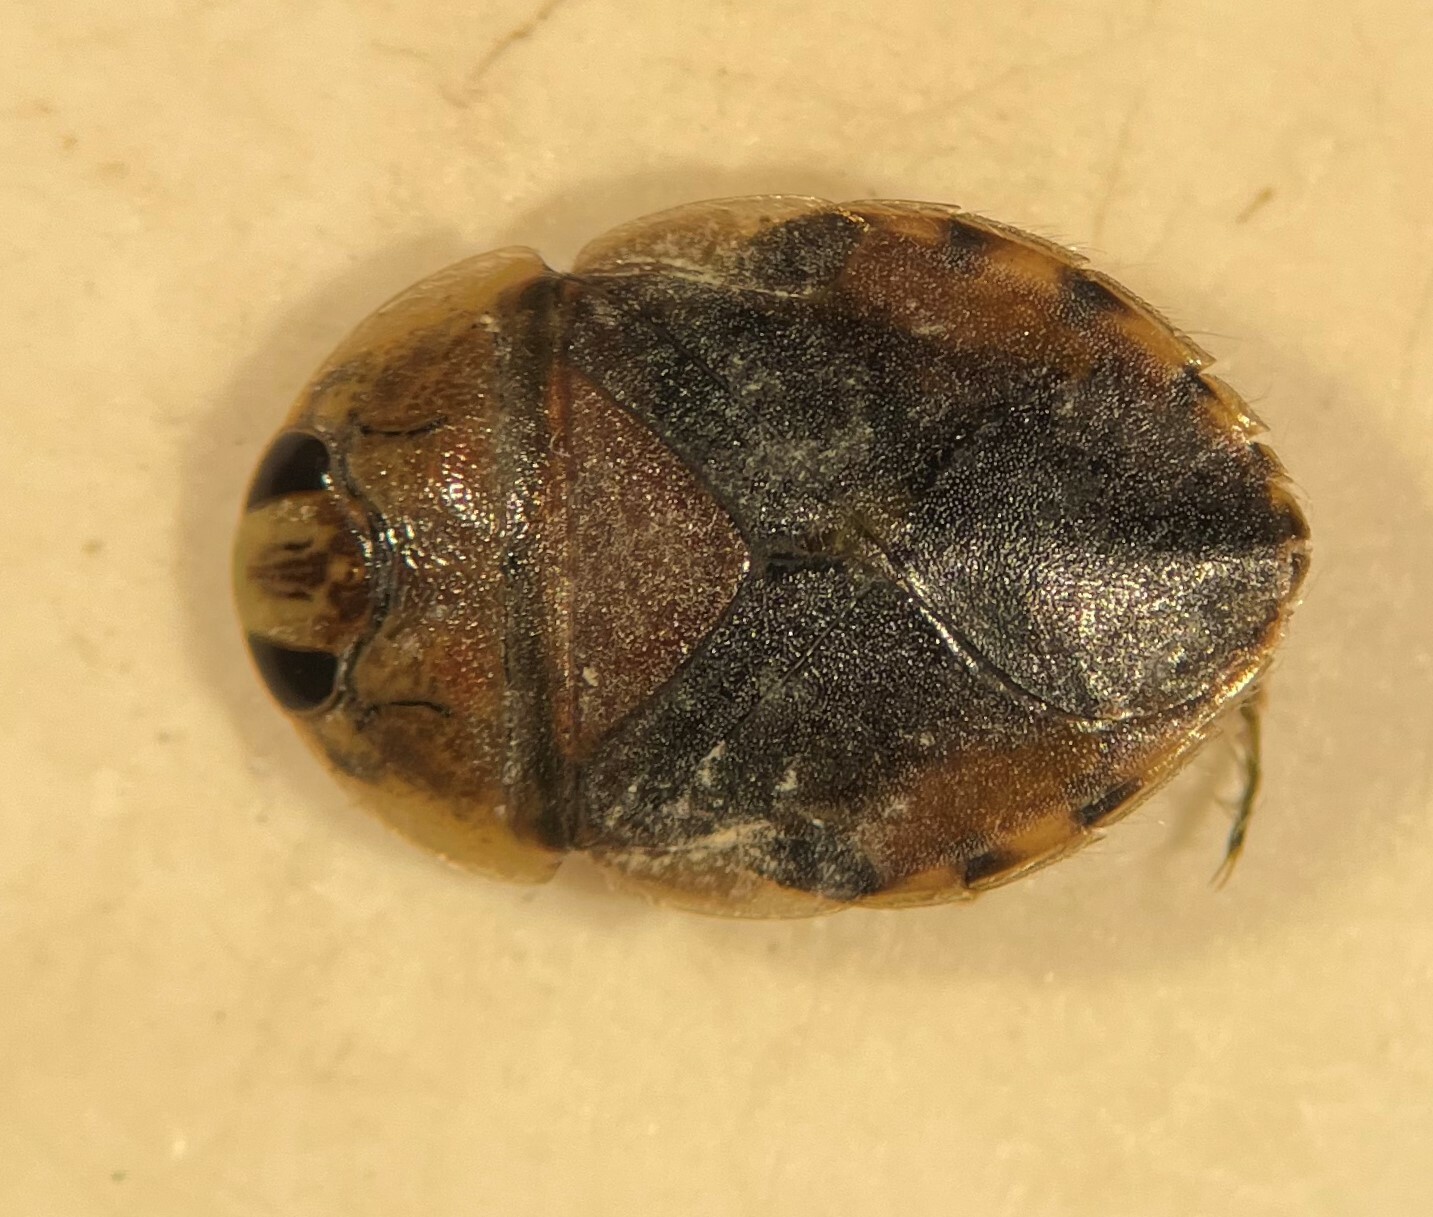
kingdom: Animalia
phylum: Arthropoda
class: Insecta
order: Hemiptera
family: Naucoridae
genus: Ambrysus
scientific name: Ambrysus hungerfordi
